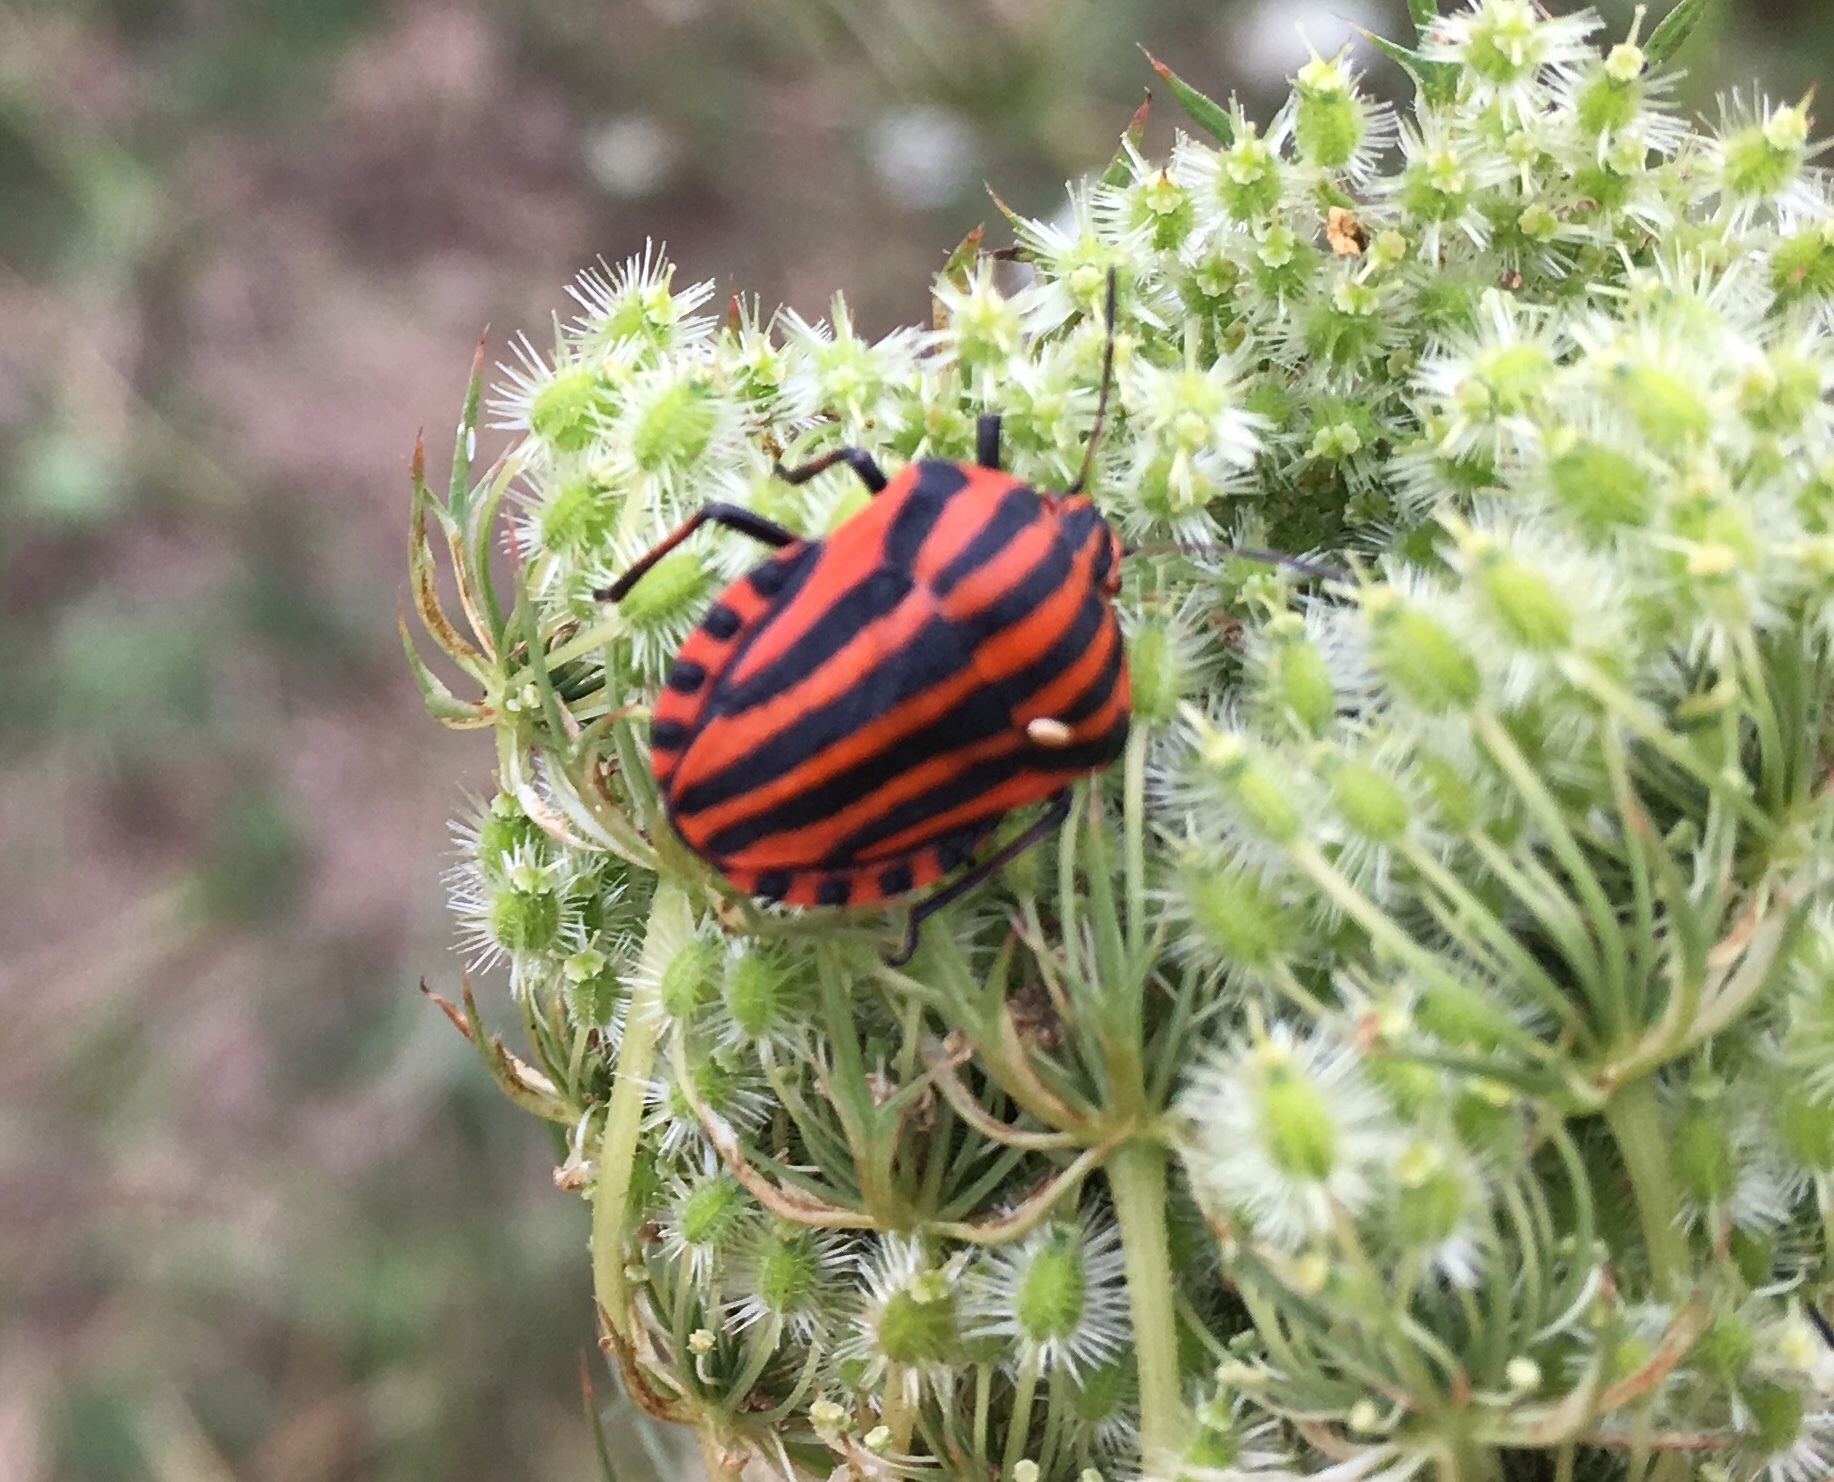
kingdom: Animalia
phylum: Arthropoda
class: Insecta
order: Hemiptera
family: Pentatomidae
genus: Graphosoma
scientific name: Graphosoma italicum
